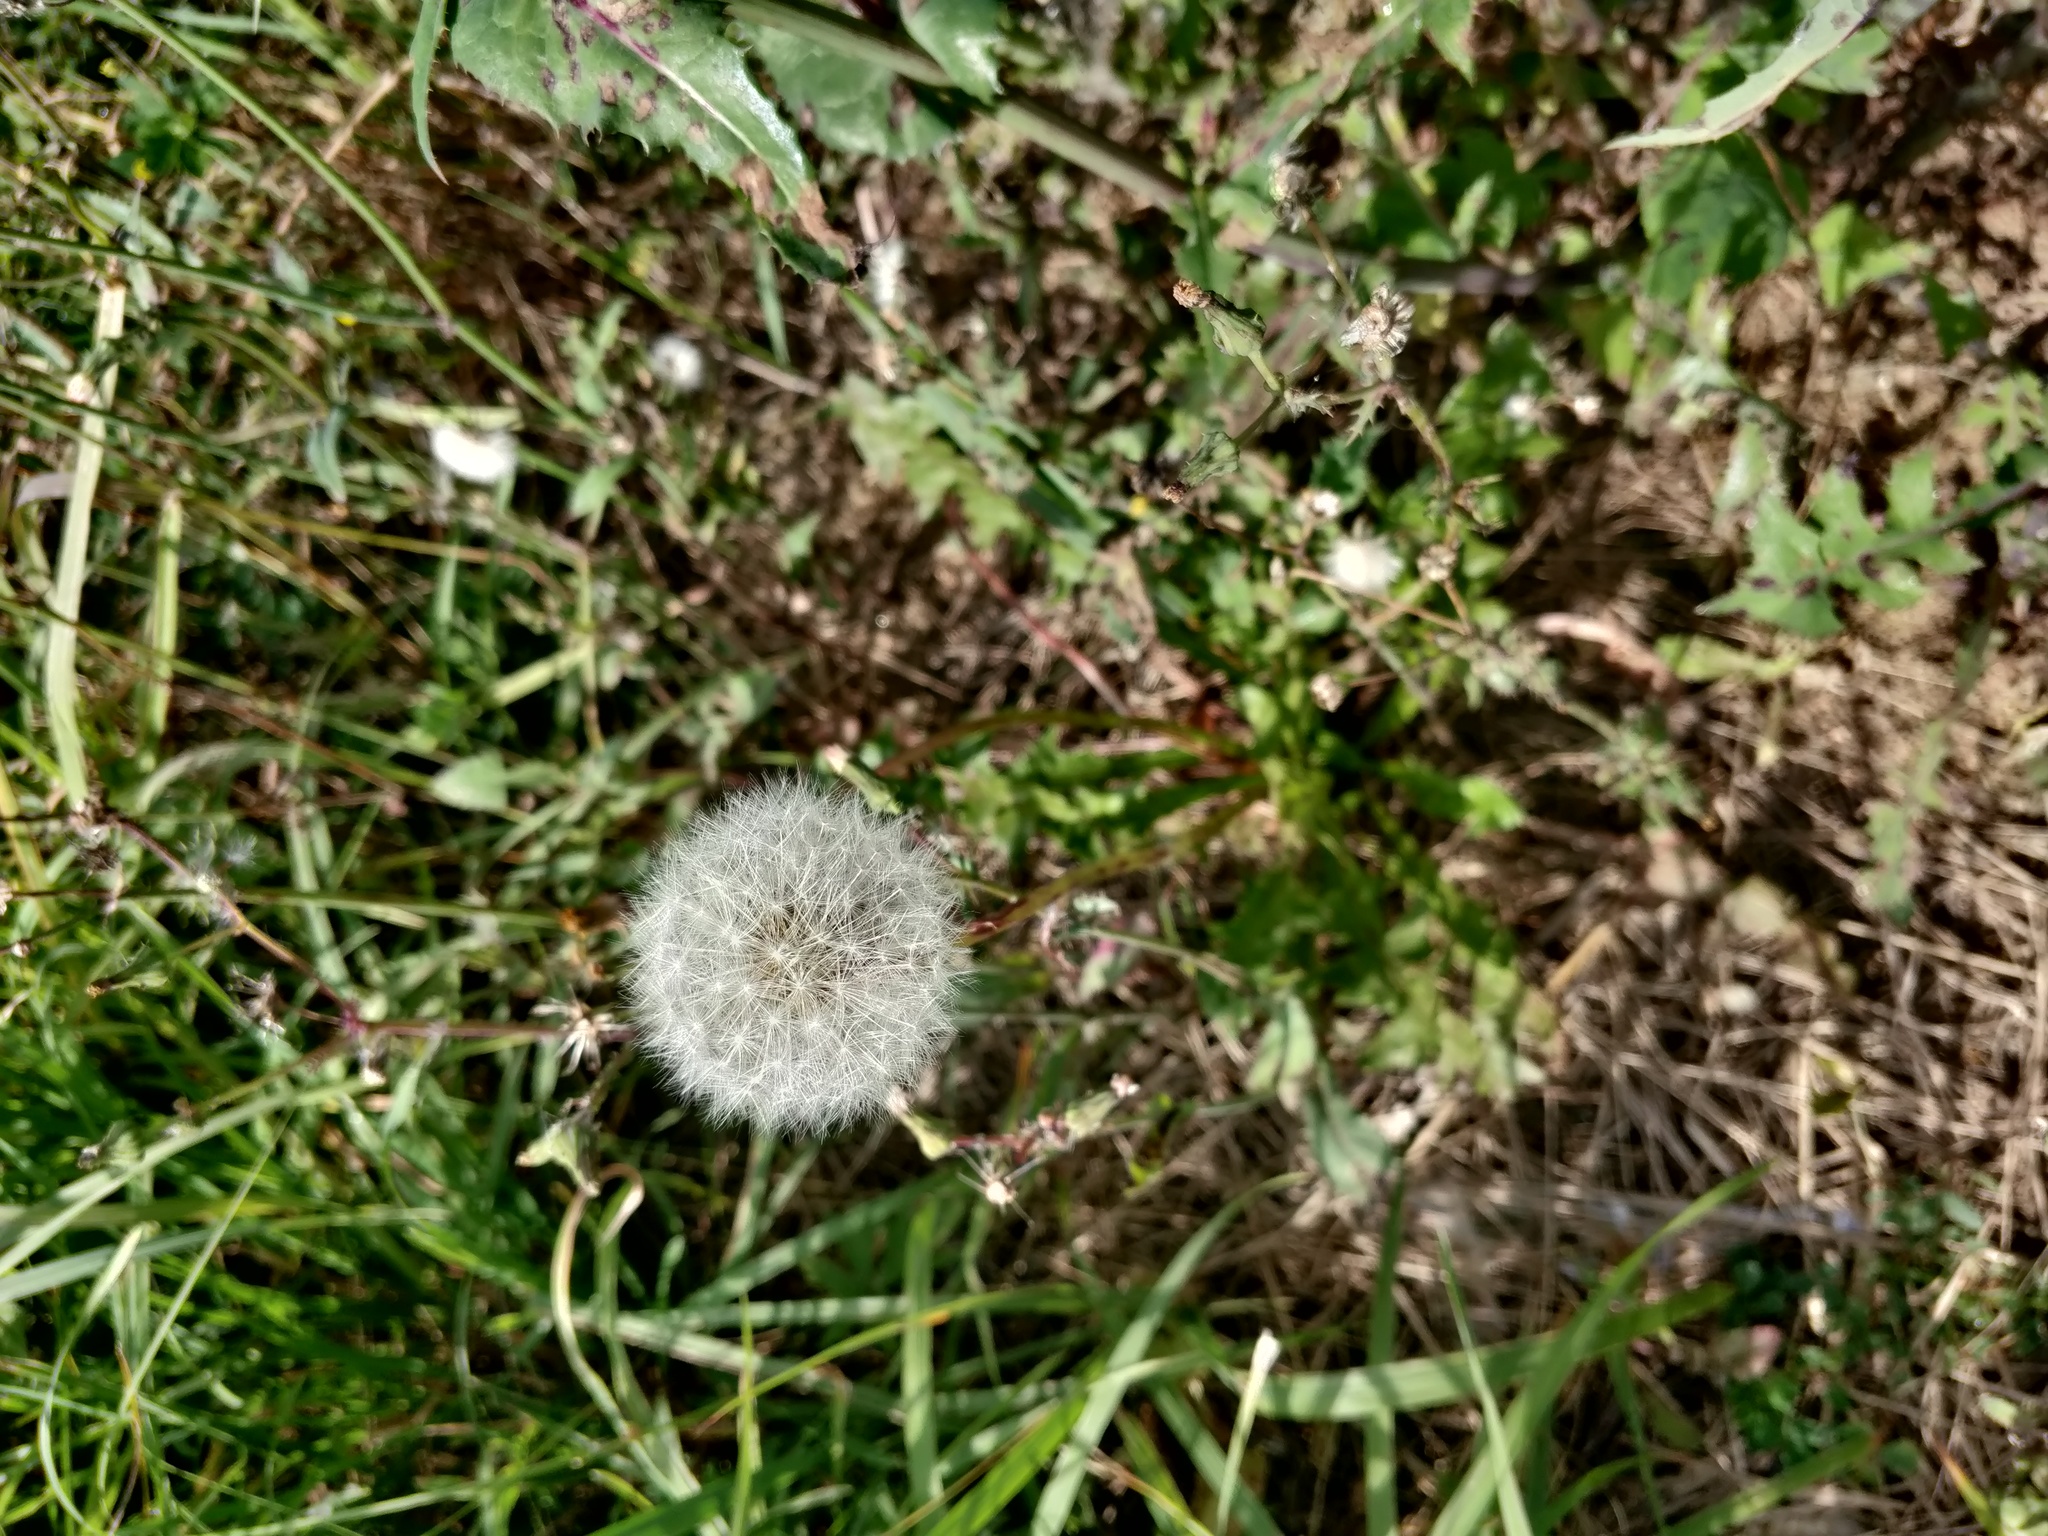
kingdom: Plantae
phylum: Tracheophyta
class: Magnoliopsida
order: Asterales
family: Asteraceae
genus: Taraxacum
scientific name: Taraxacum officinale
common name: Common dandelion
